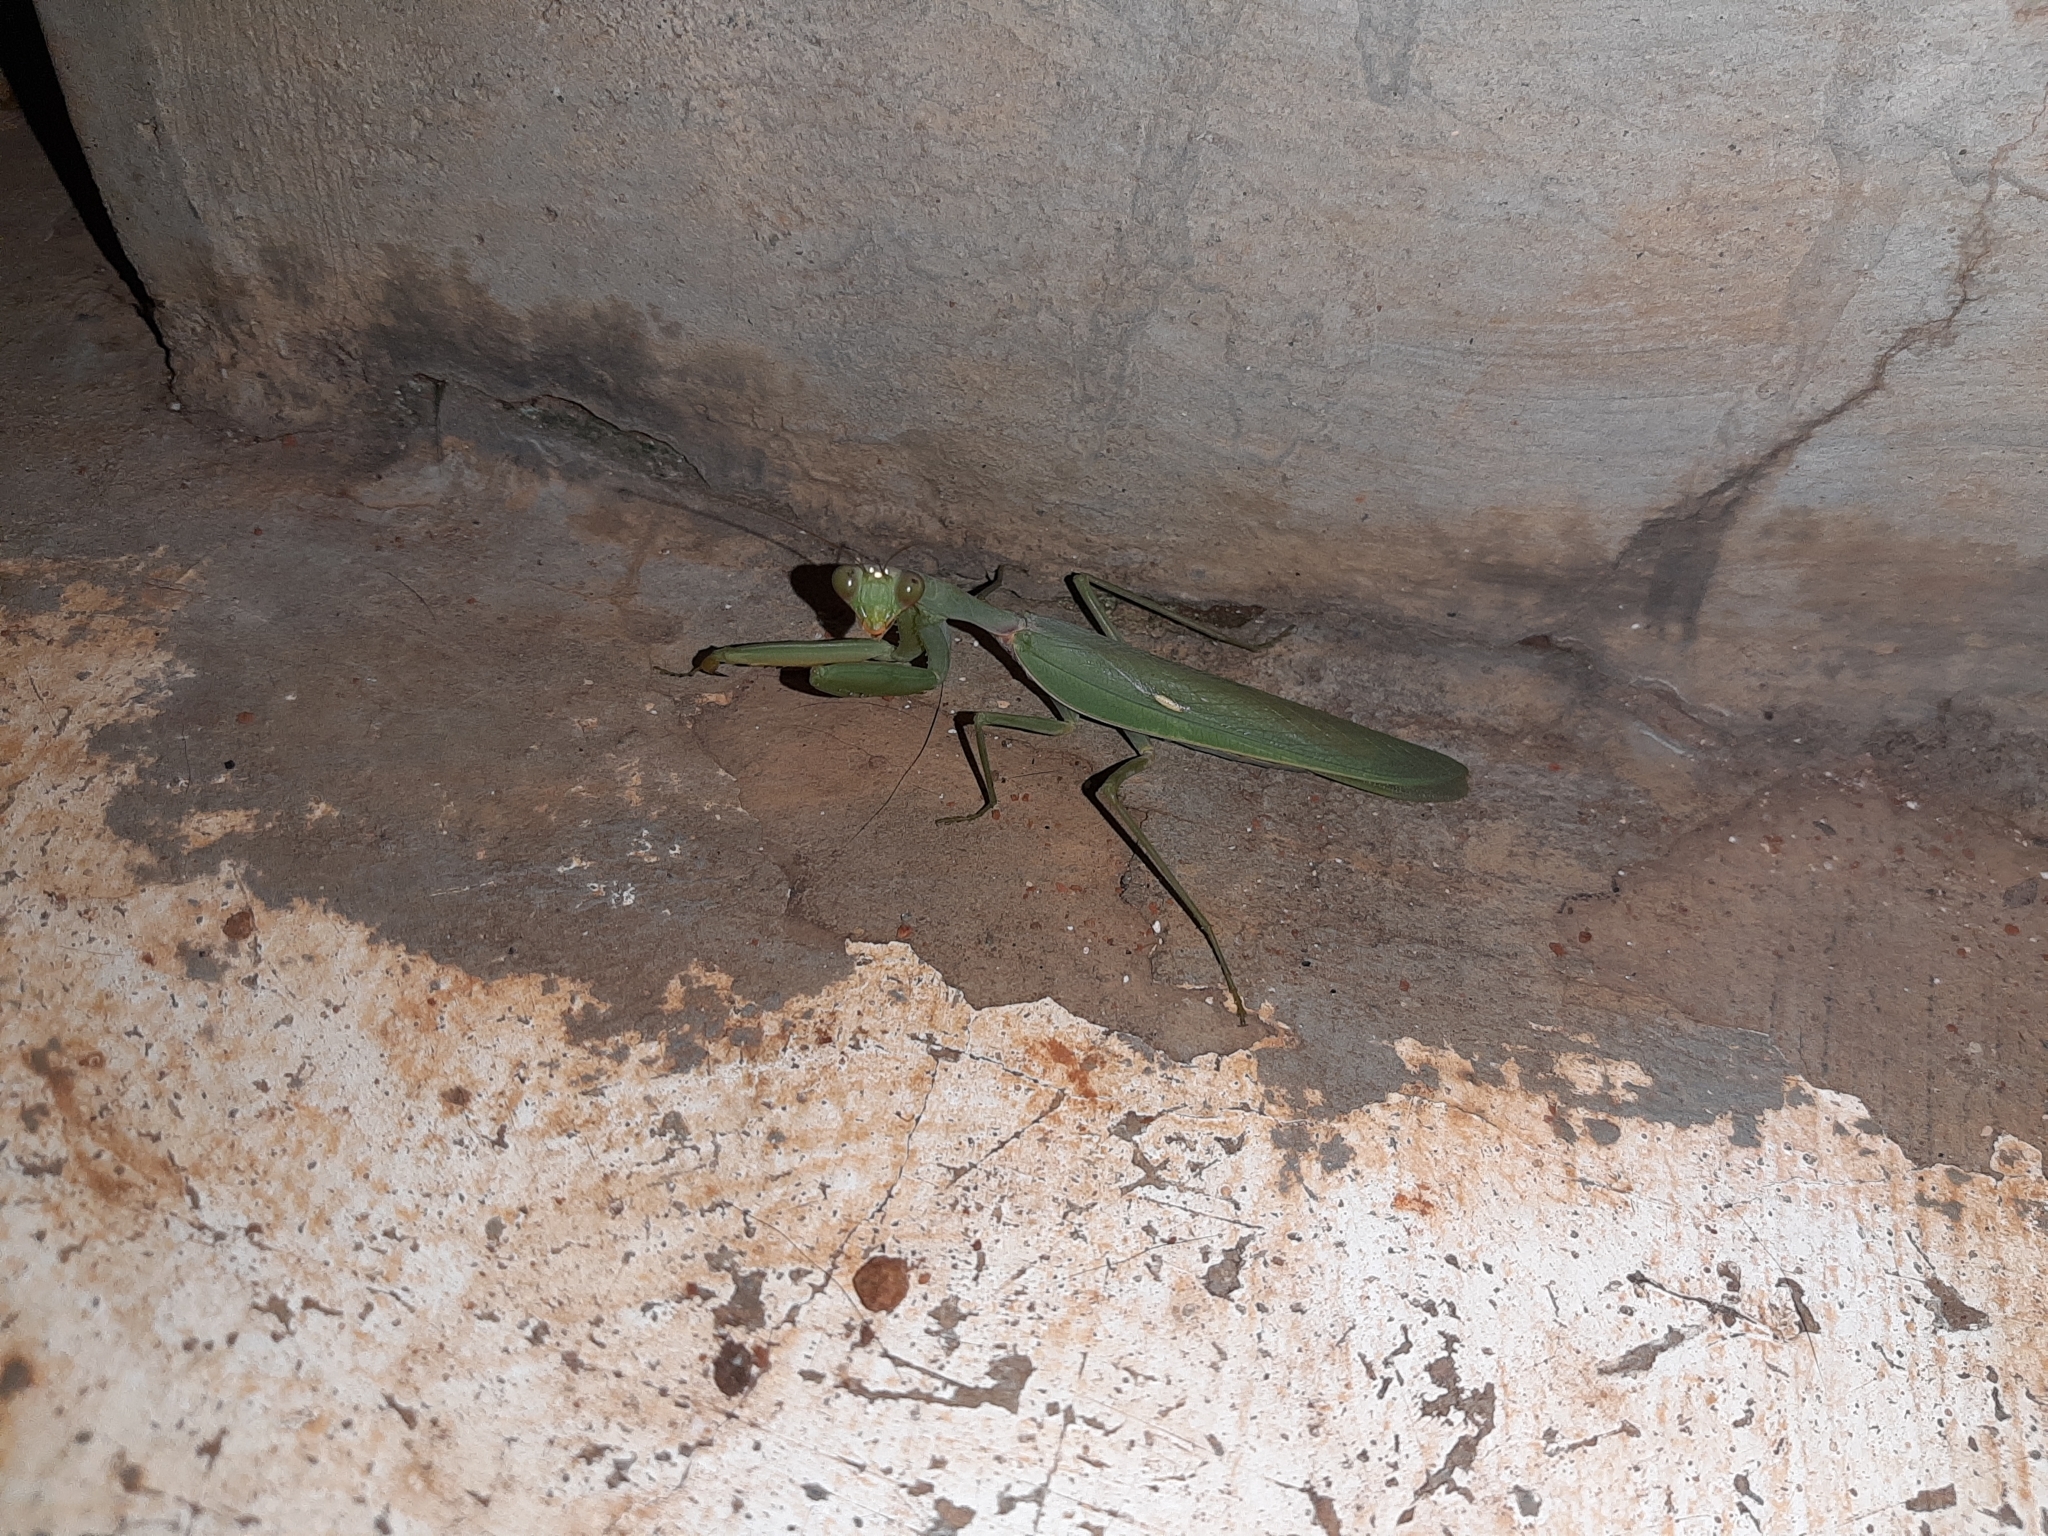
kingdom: Animalia
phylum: Arthropoda
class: Insecta
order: Mantodea
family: Mantidae
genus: Hierodula
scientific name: Hierodula tenuidentata
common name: Giant asian mantis
